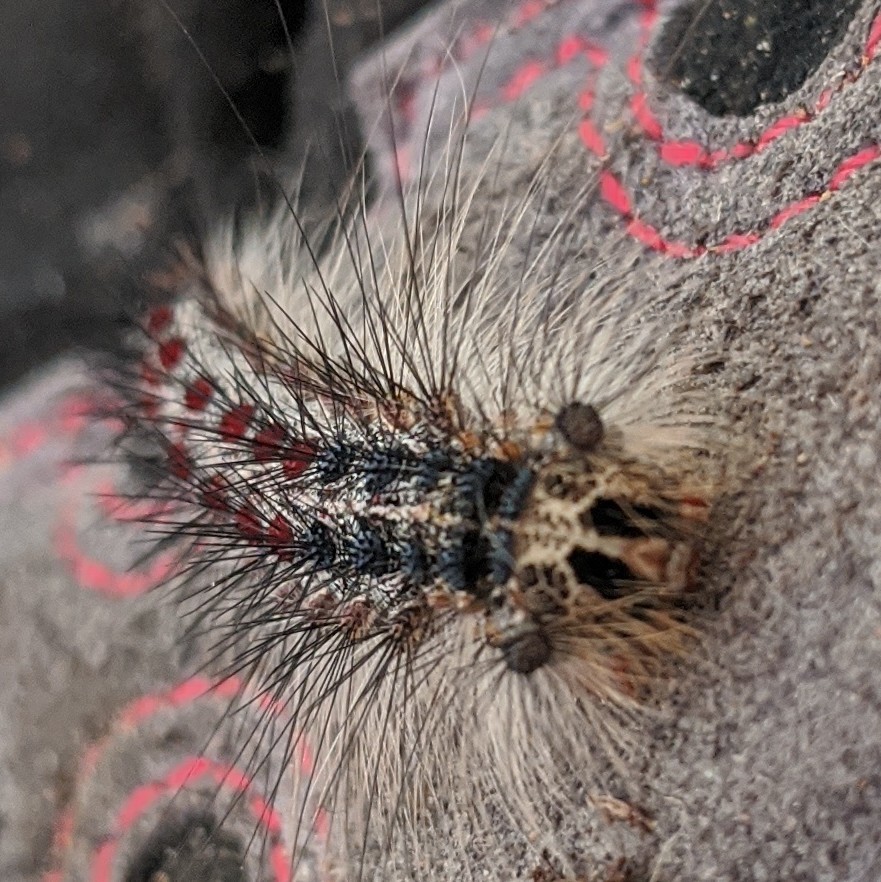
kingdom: Animalia
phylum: Arthropoda
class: Insecta
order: Lepidoptera
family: Erebidae
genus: Lymantria
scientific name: Lymantria dispar
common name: Gypsy moth
